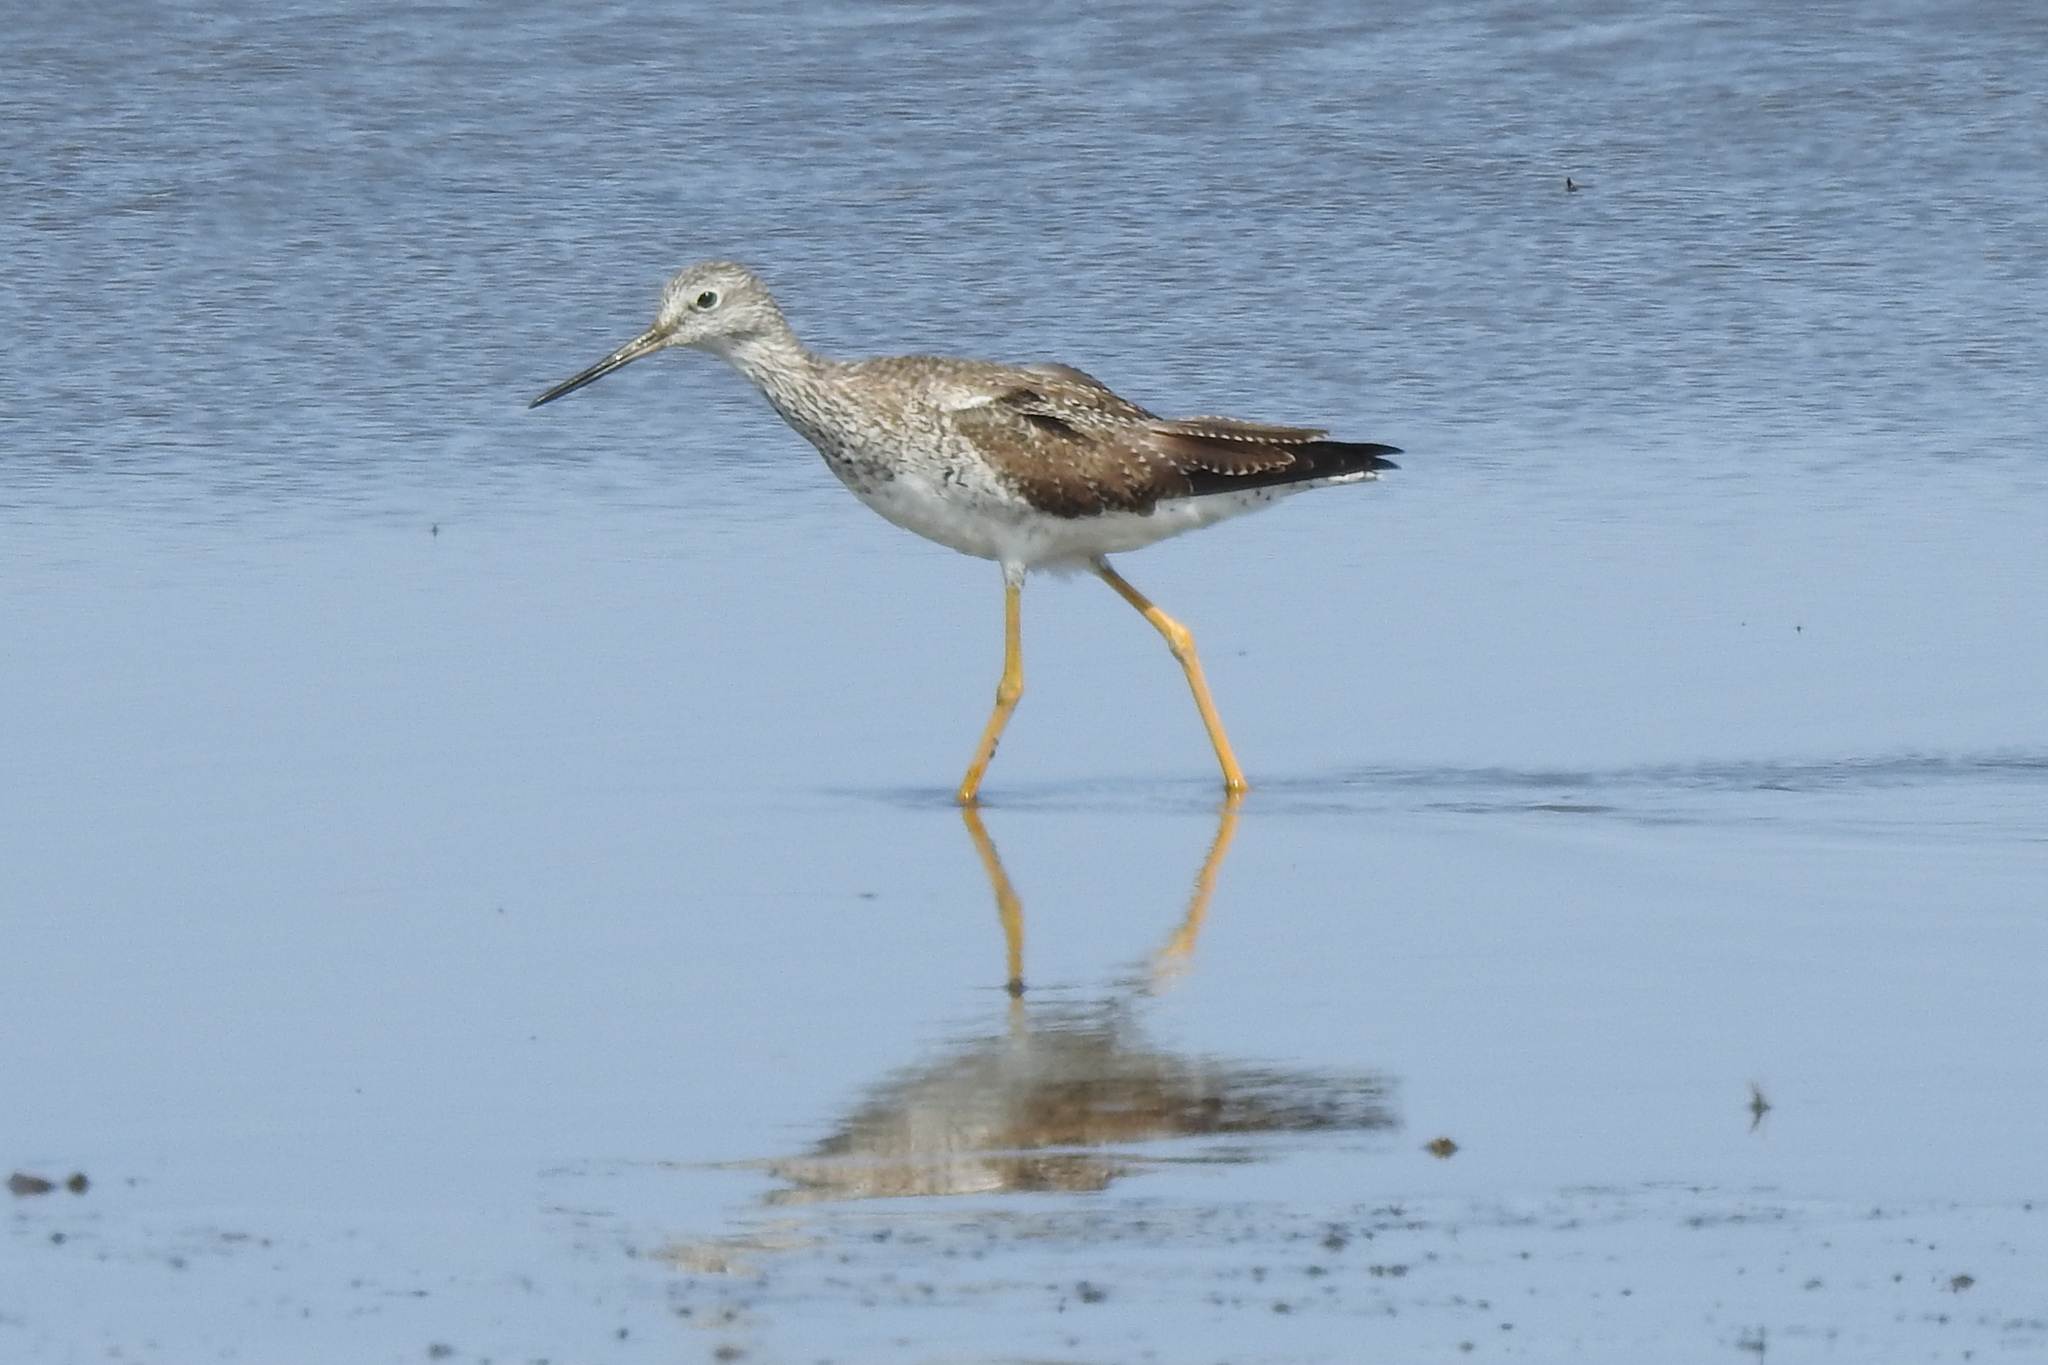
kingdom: Animalia
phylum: Chordata
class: Aves
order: Charadriiformes
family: Scolopacidae
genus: Tringa
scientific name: Tringa melanoleuca
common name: Greater yellowlegs
